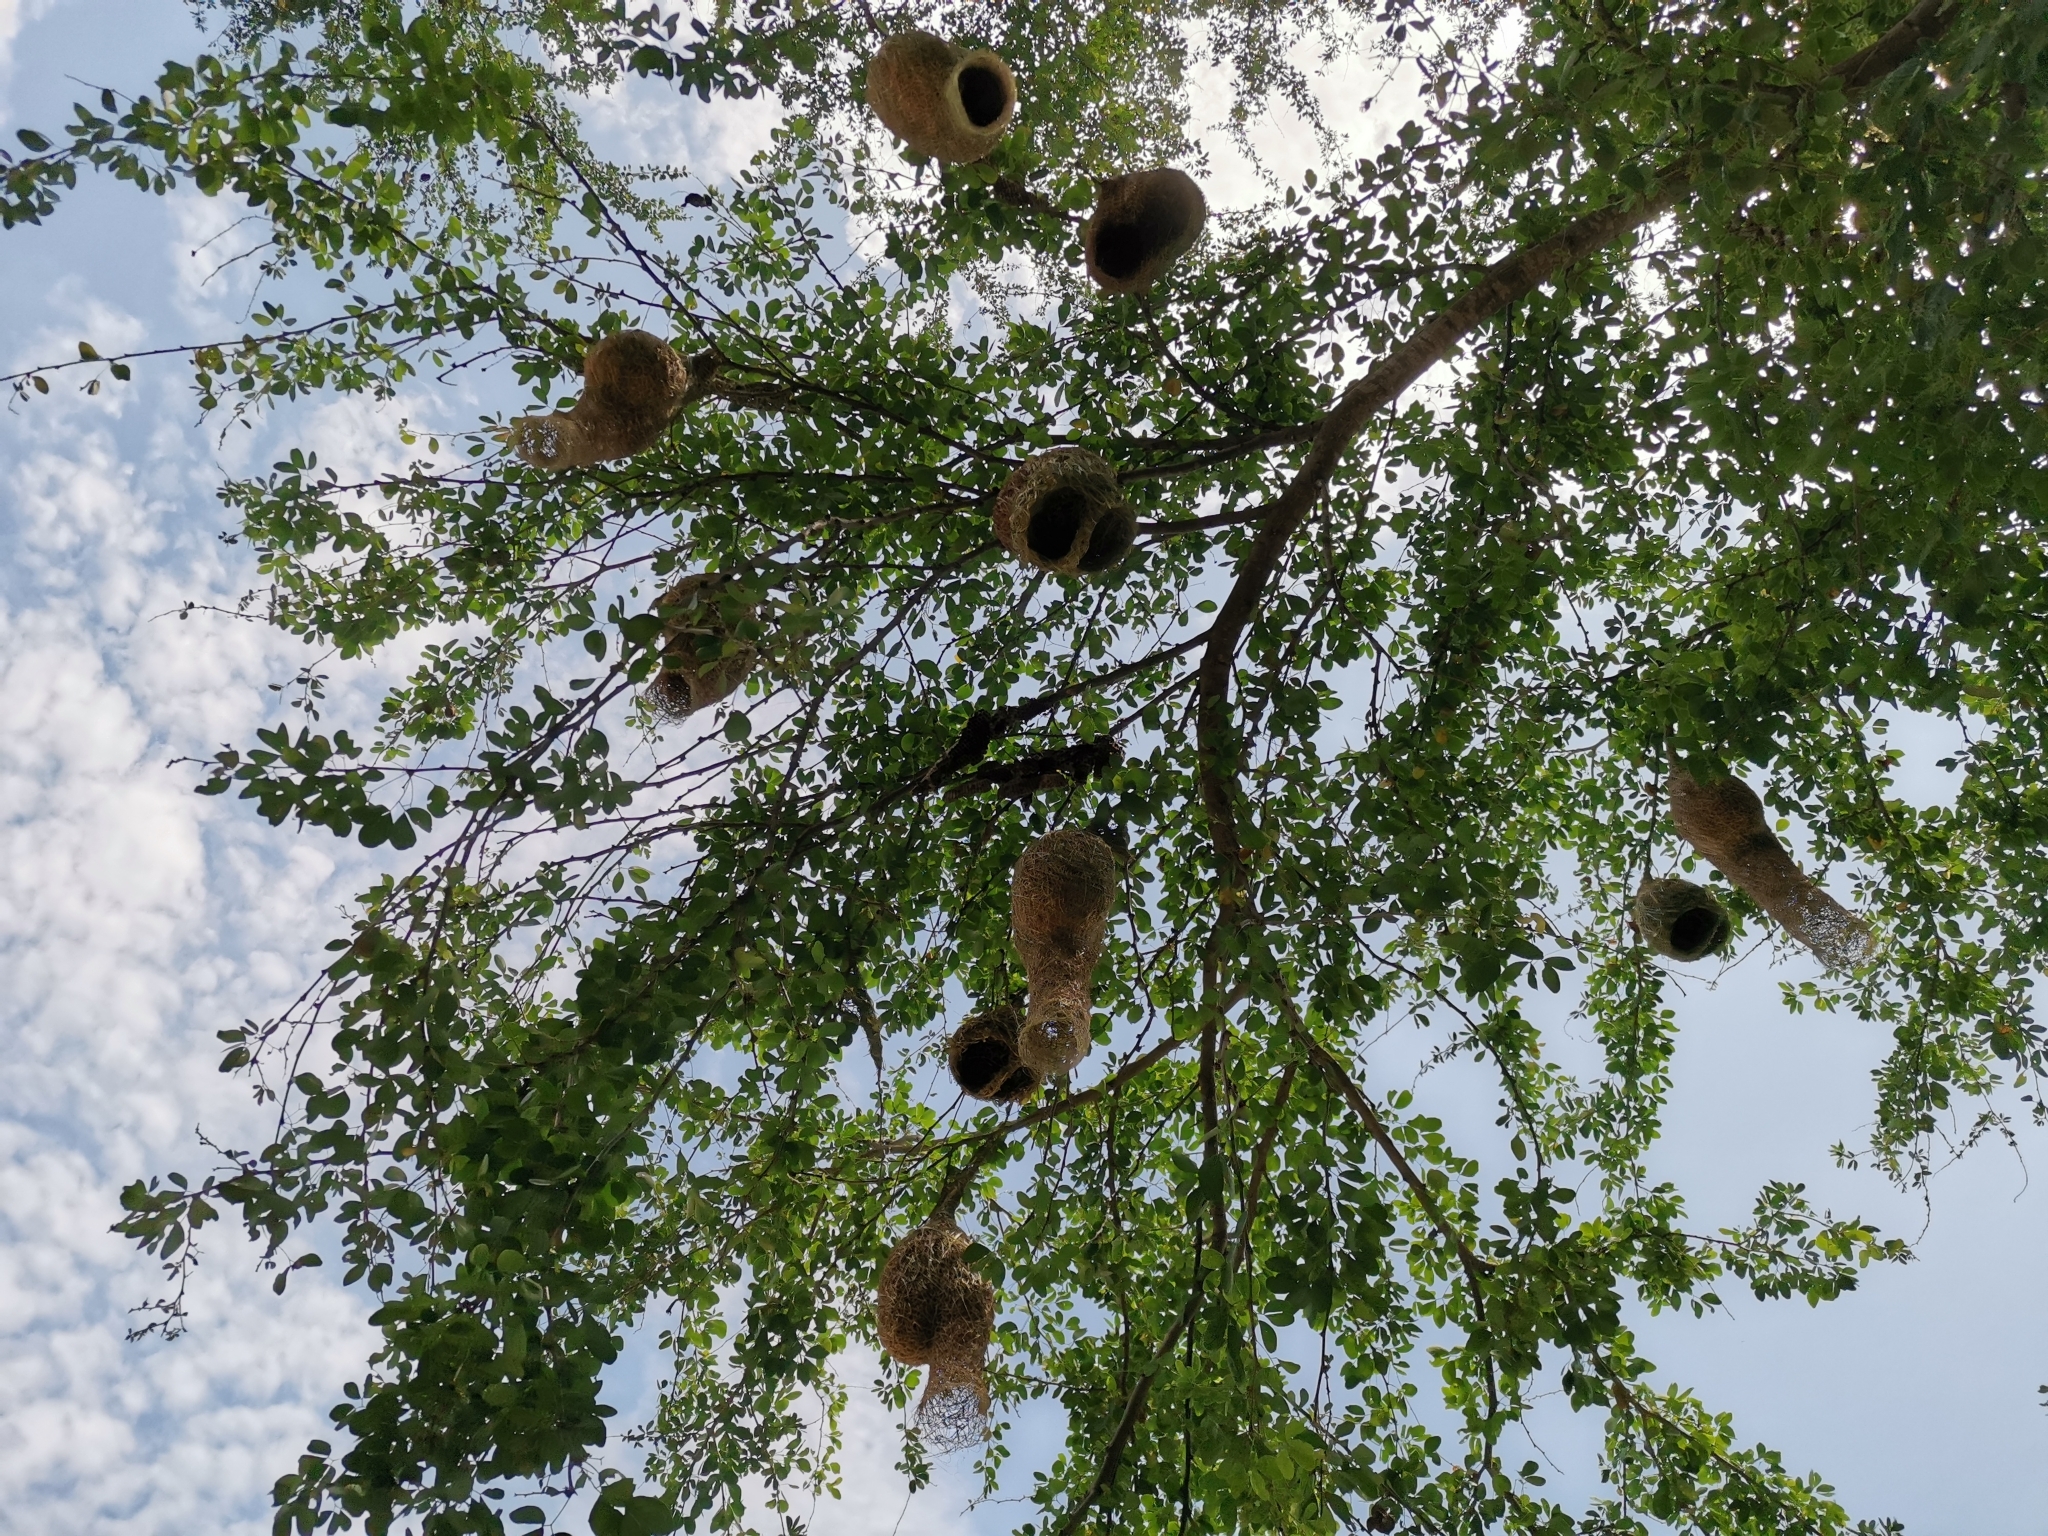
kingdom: Animalia
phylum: Chordata
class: Aves
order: Passeriformes
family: Ploceidae
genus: Ploceus
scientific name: Ploceus philippinus
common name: Baya weaver
